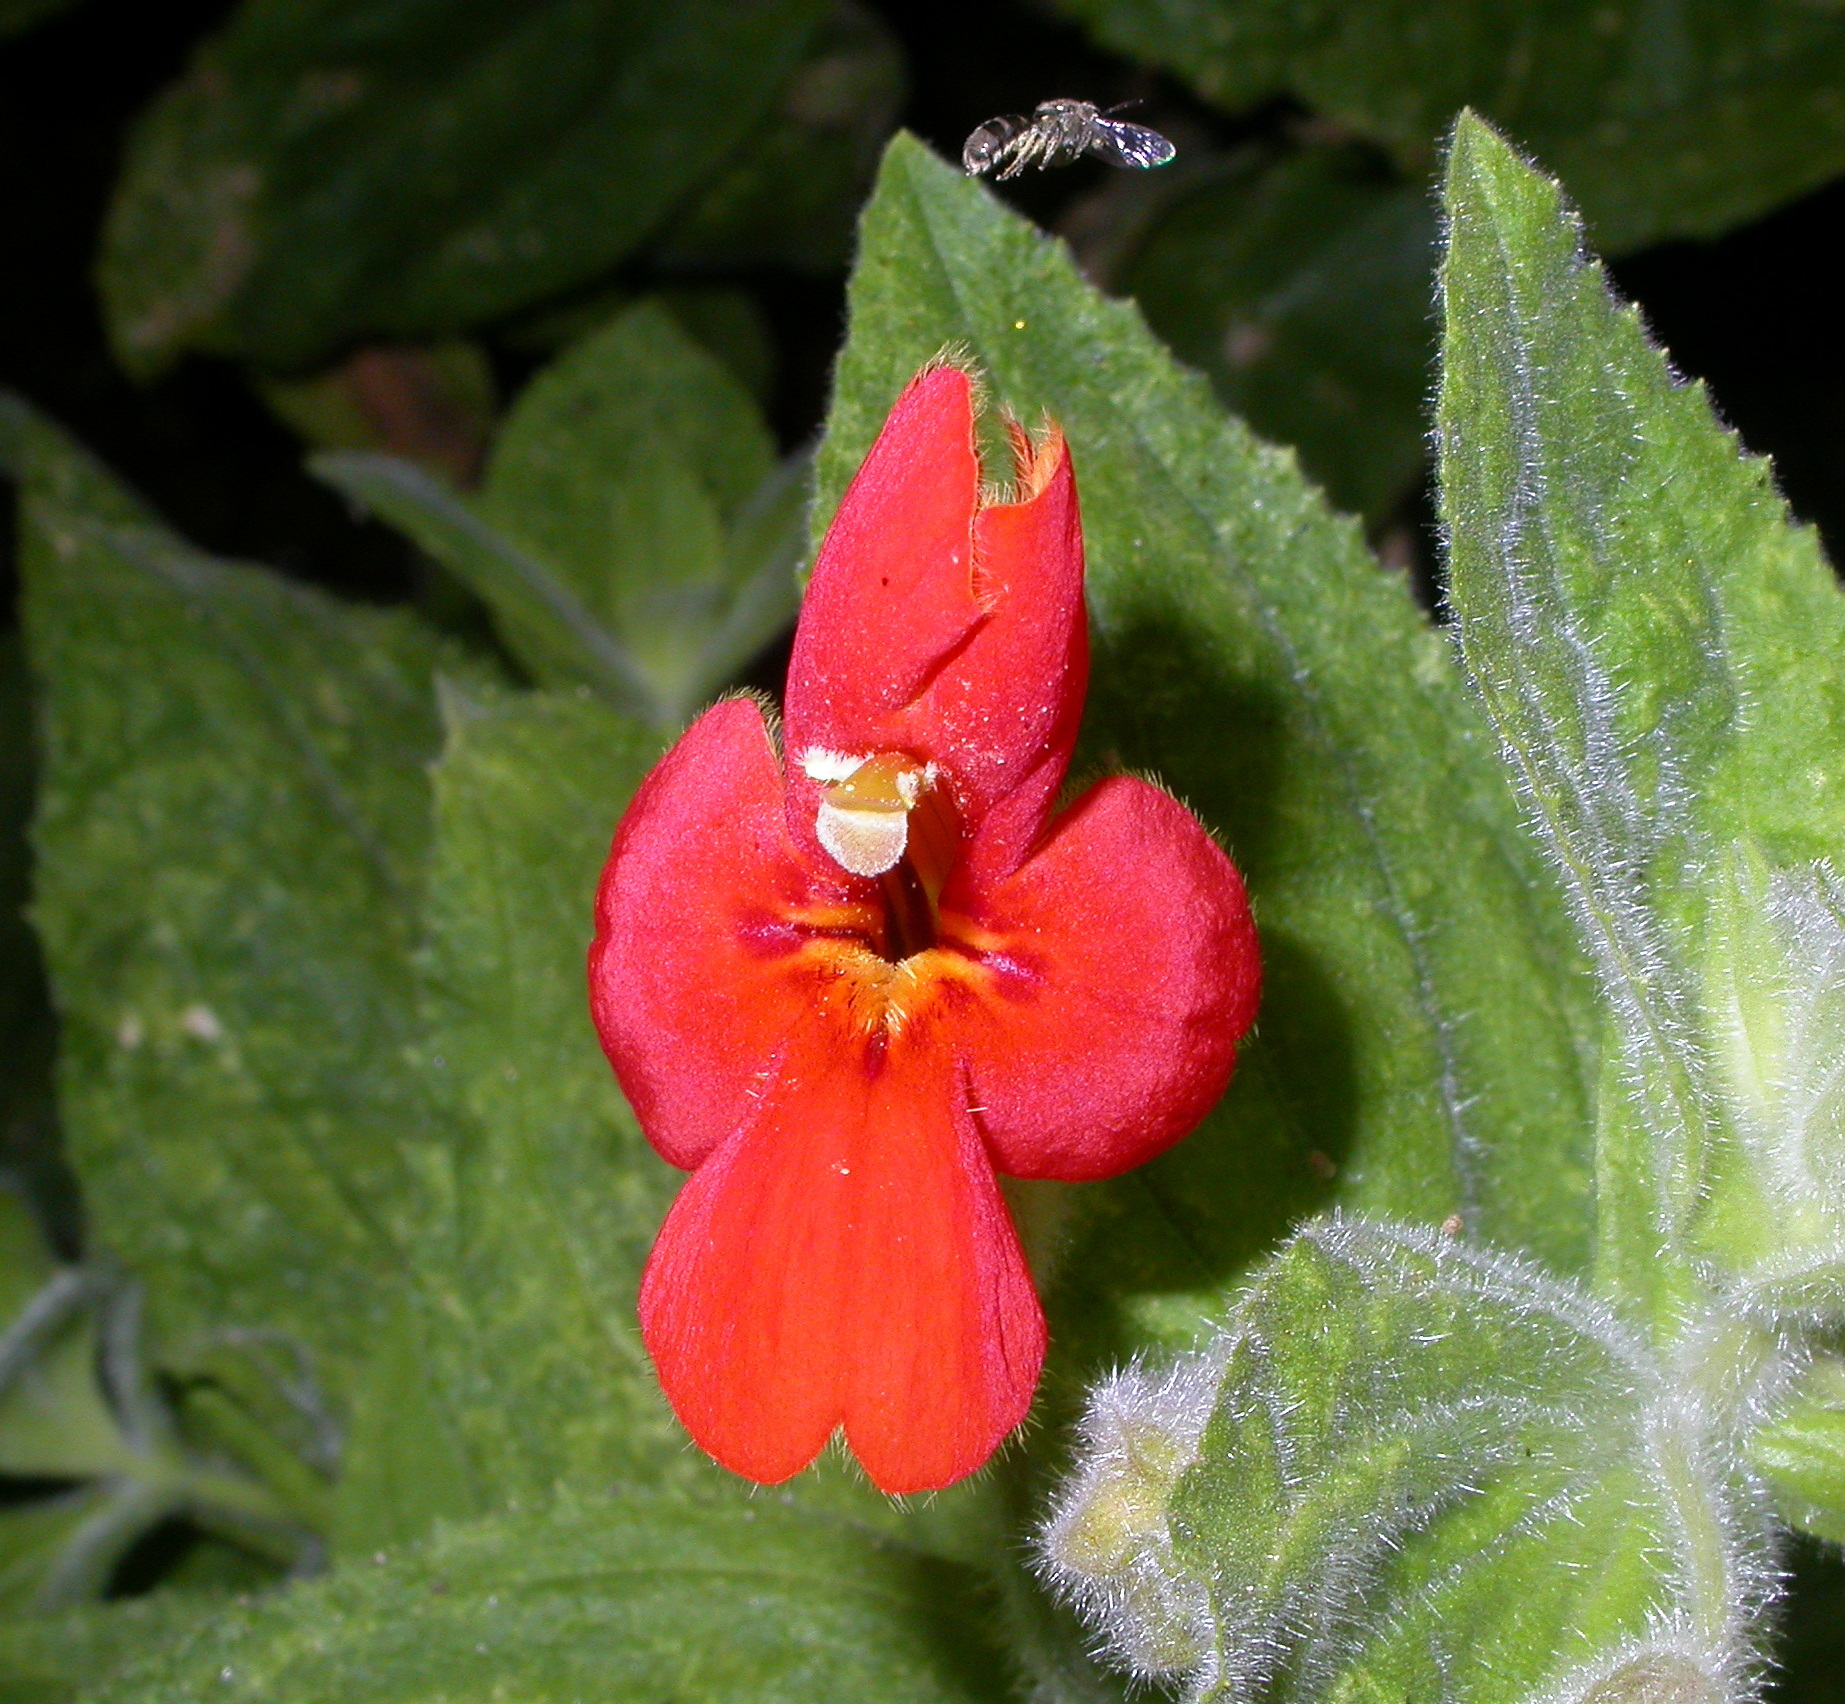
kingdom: Plantae
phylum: Tracheophyta
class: Magnoliopsida
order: Lamiales
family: Phrymaceae
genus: Erythranthe
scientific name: Erythranthe cardinalis
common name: Scarlet monkey-flower
